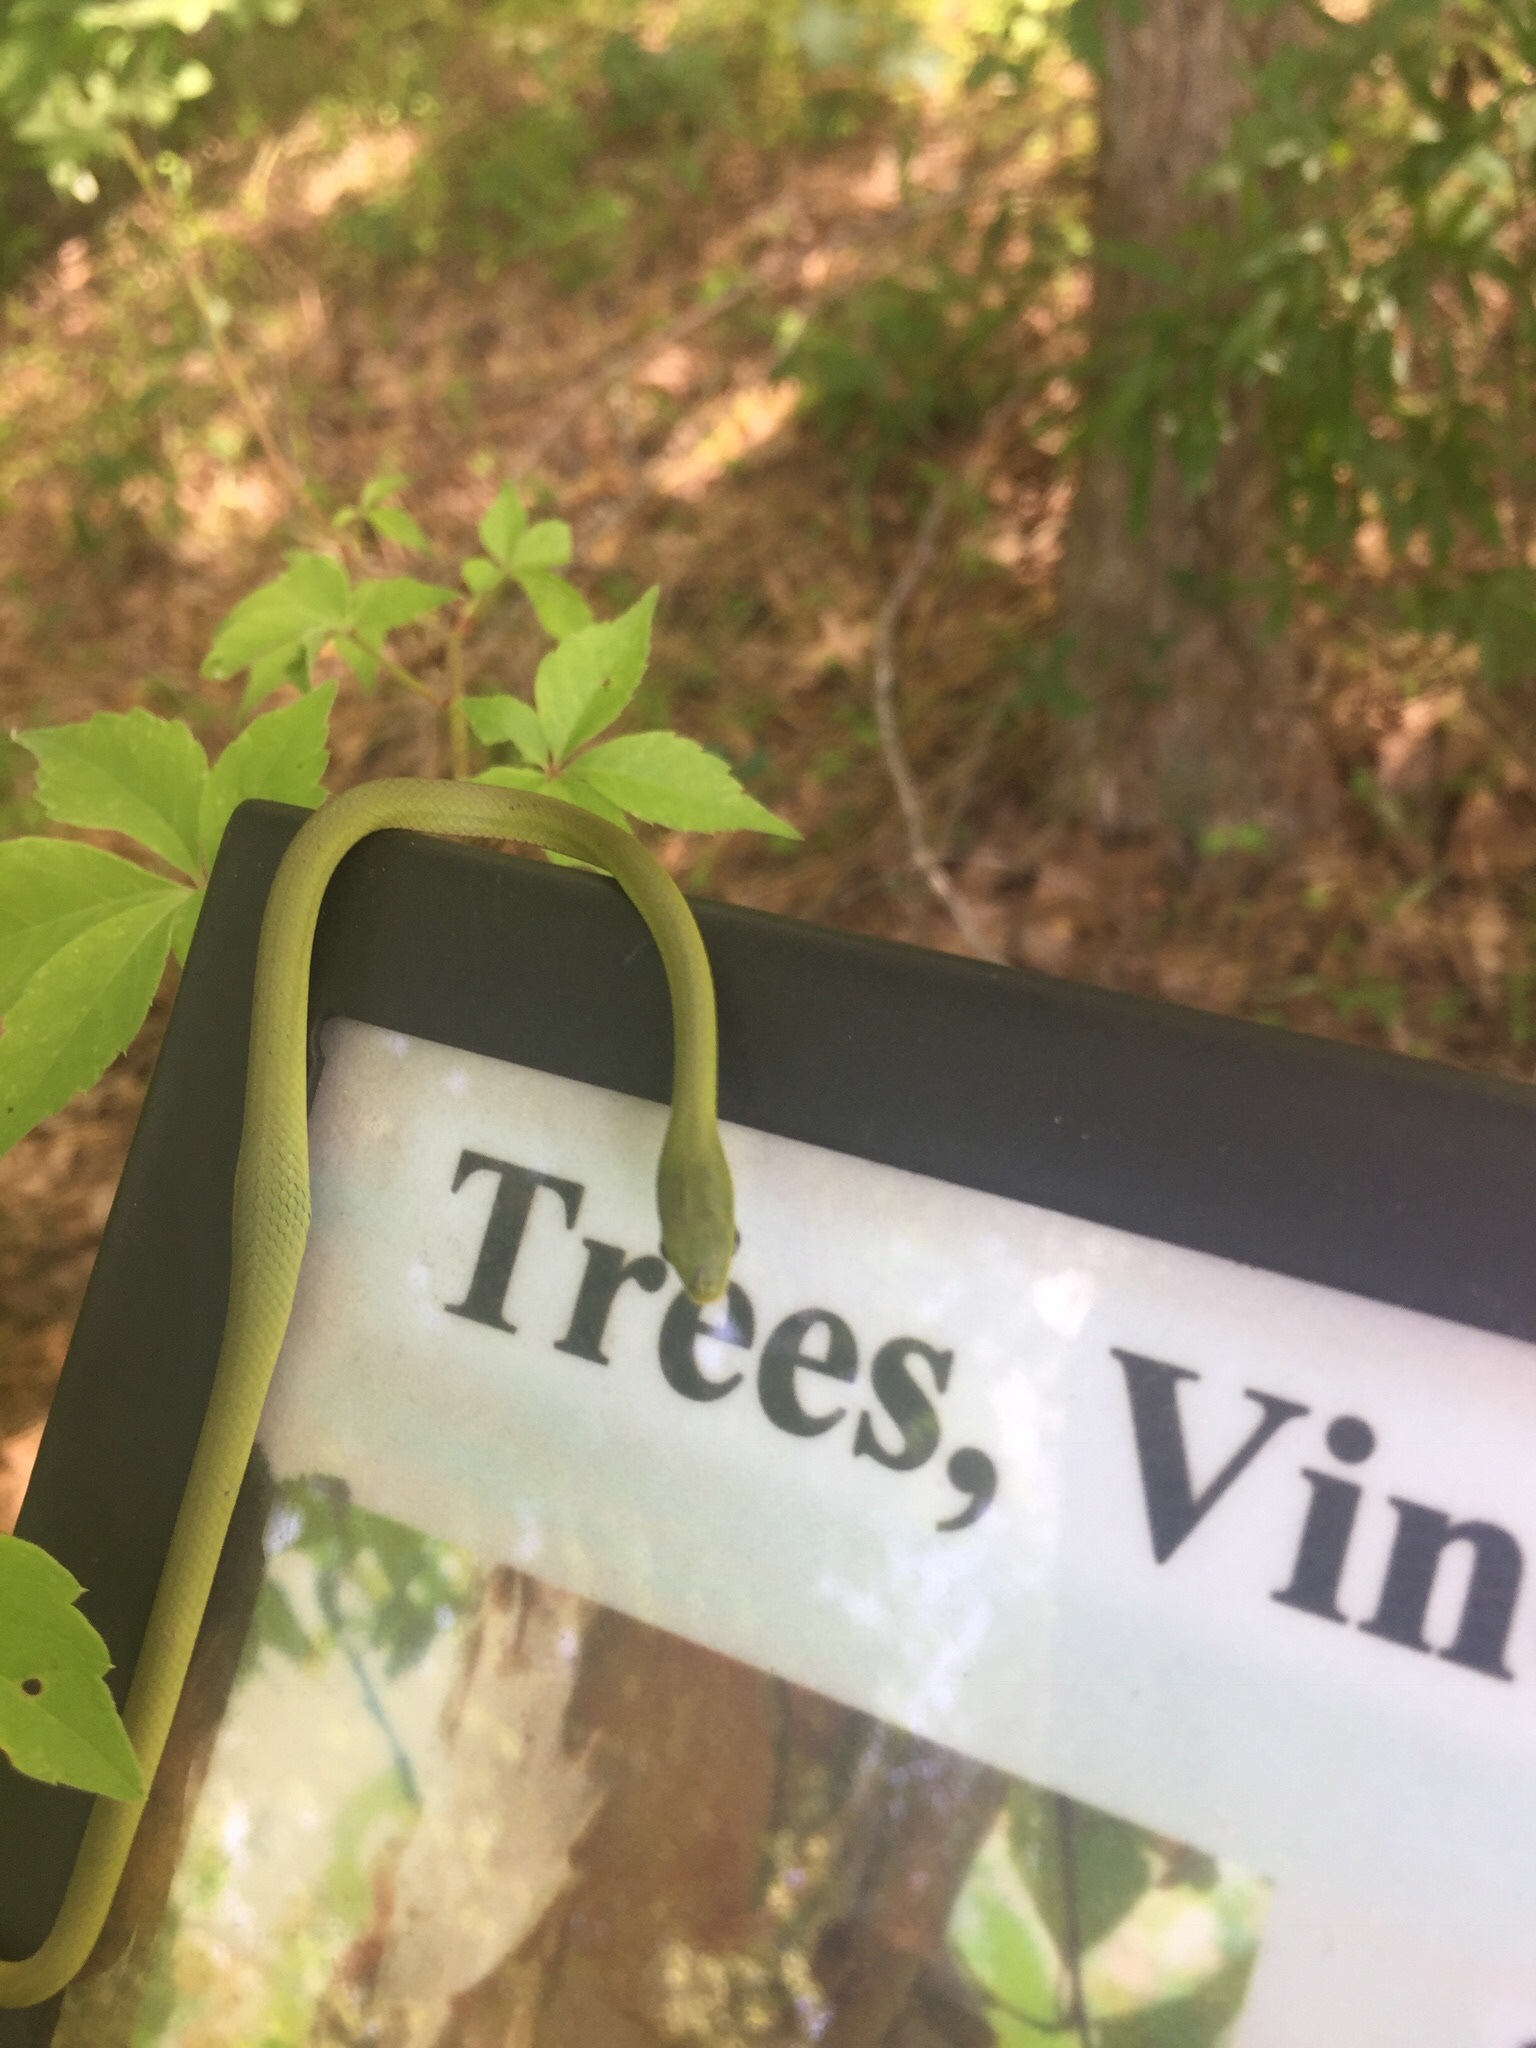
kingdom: Animalia
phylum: Chordata
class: Squamata
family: Colubridae
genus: Opheodrys
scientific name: Opheodrys aestivus
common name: Rough greensnake
